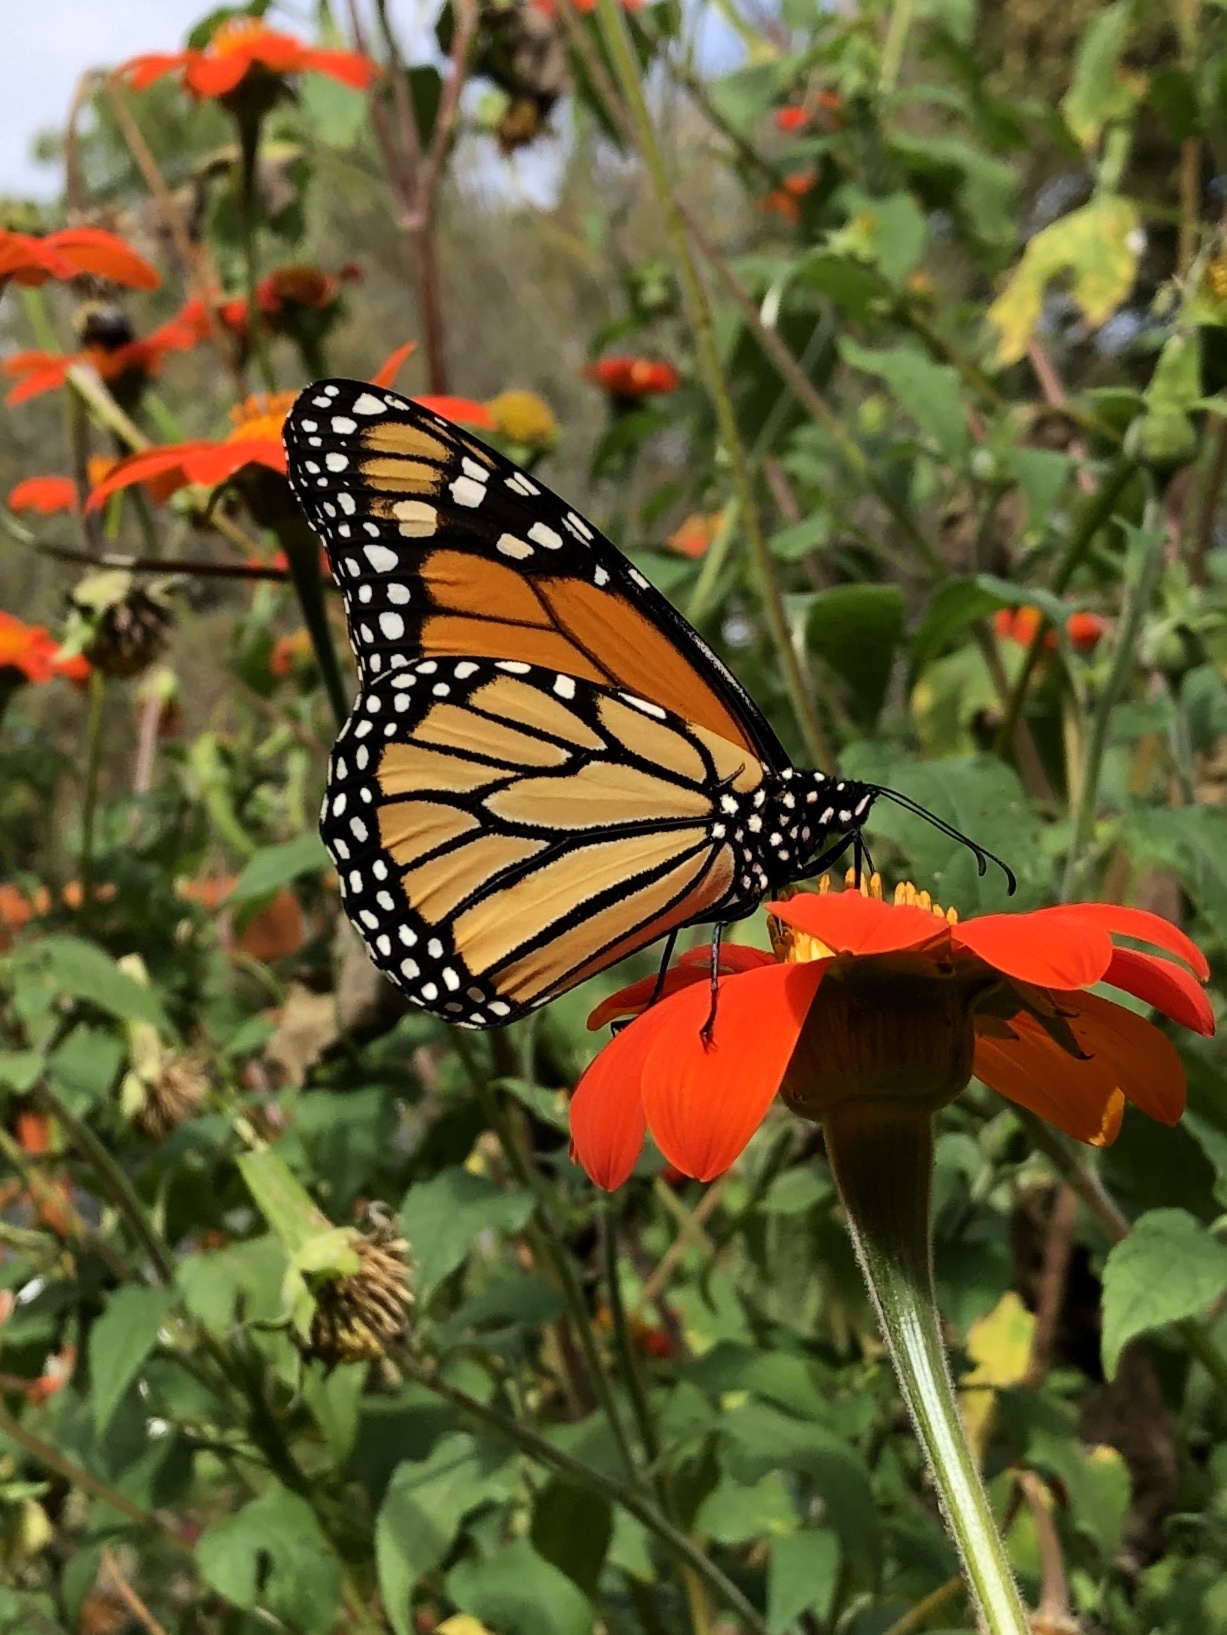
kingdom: Animalia
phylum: Arthropoda
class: Insecta
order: Lepidoptera
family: Nymphalidae
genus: Danaus
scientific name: Danaus plexippus
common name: Monarch
